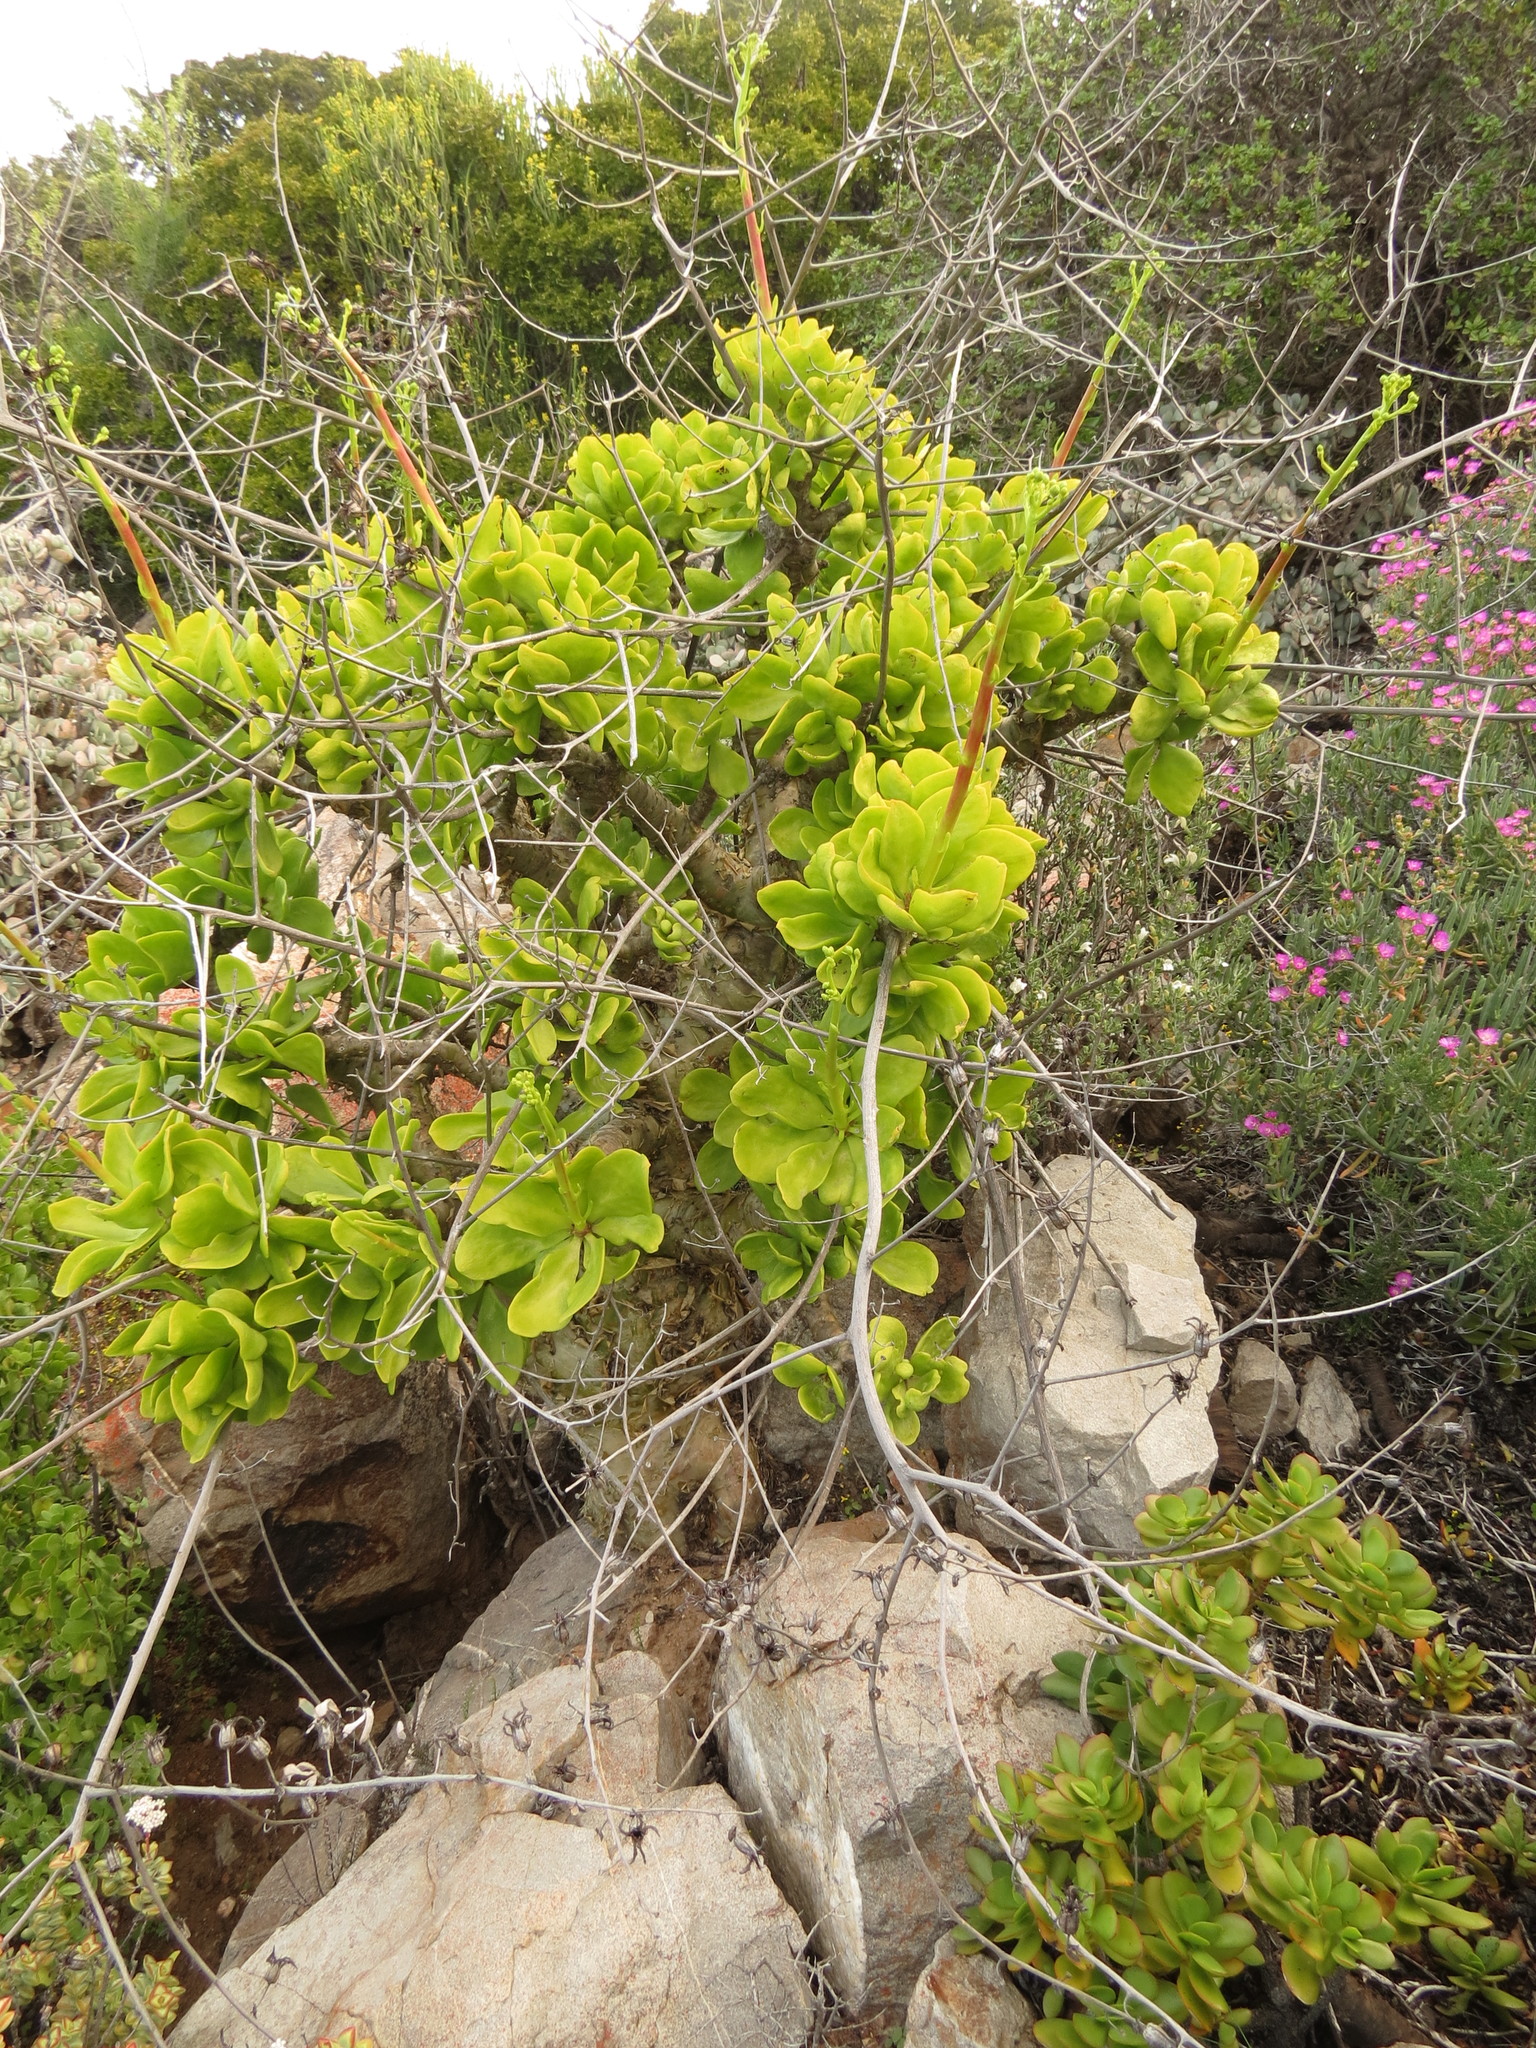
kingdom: Plantae
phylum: Tracheophyta
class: Magnoliopsida
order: Saxifragales
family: Crassulaceae
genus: Tylecodon
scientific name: Tylecodon paniculatus
